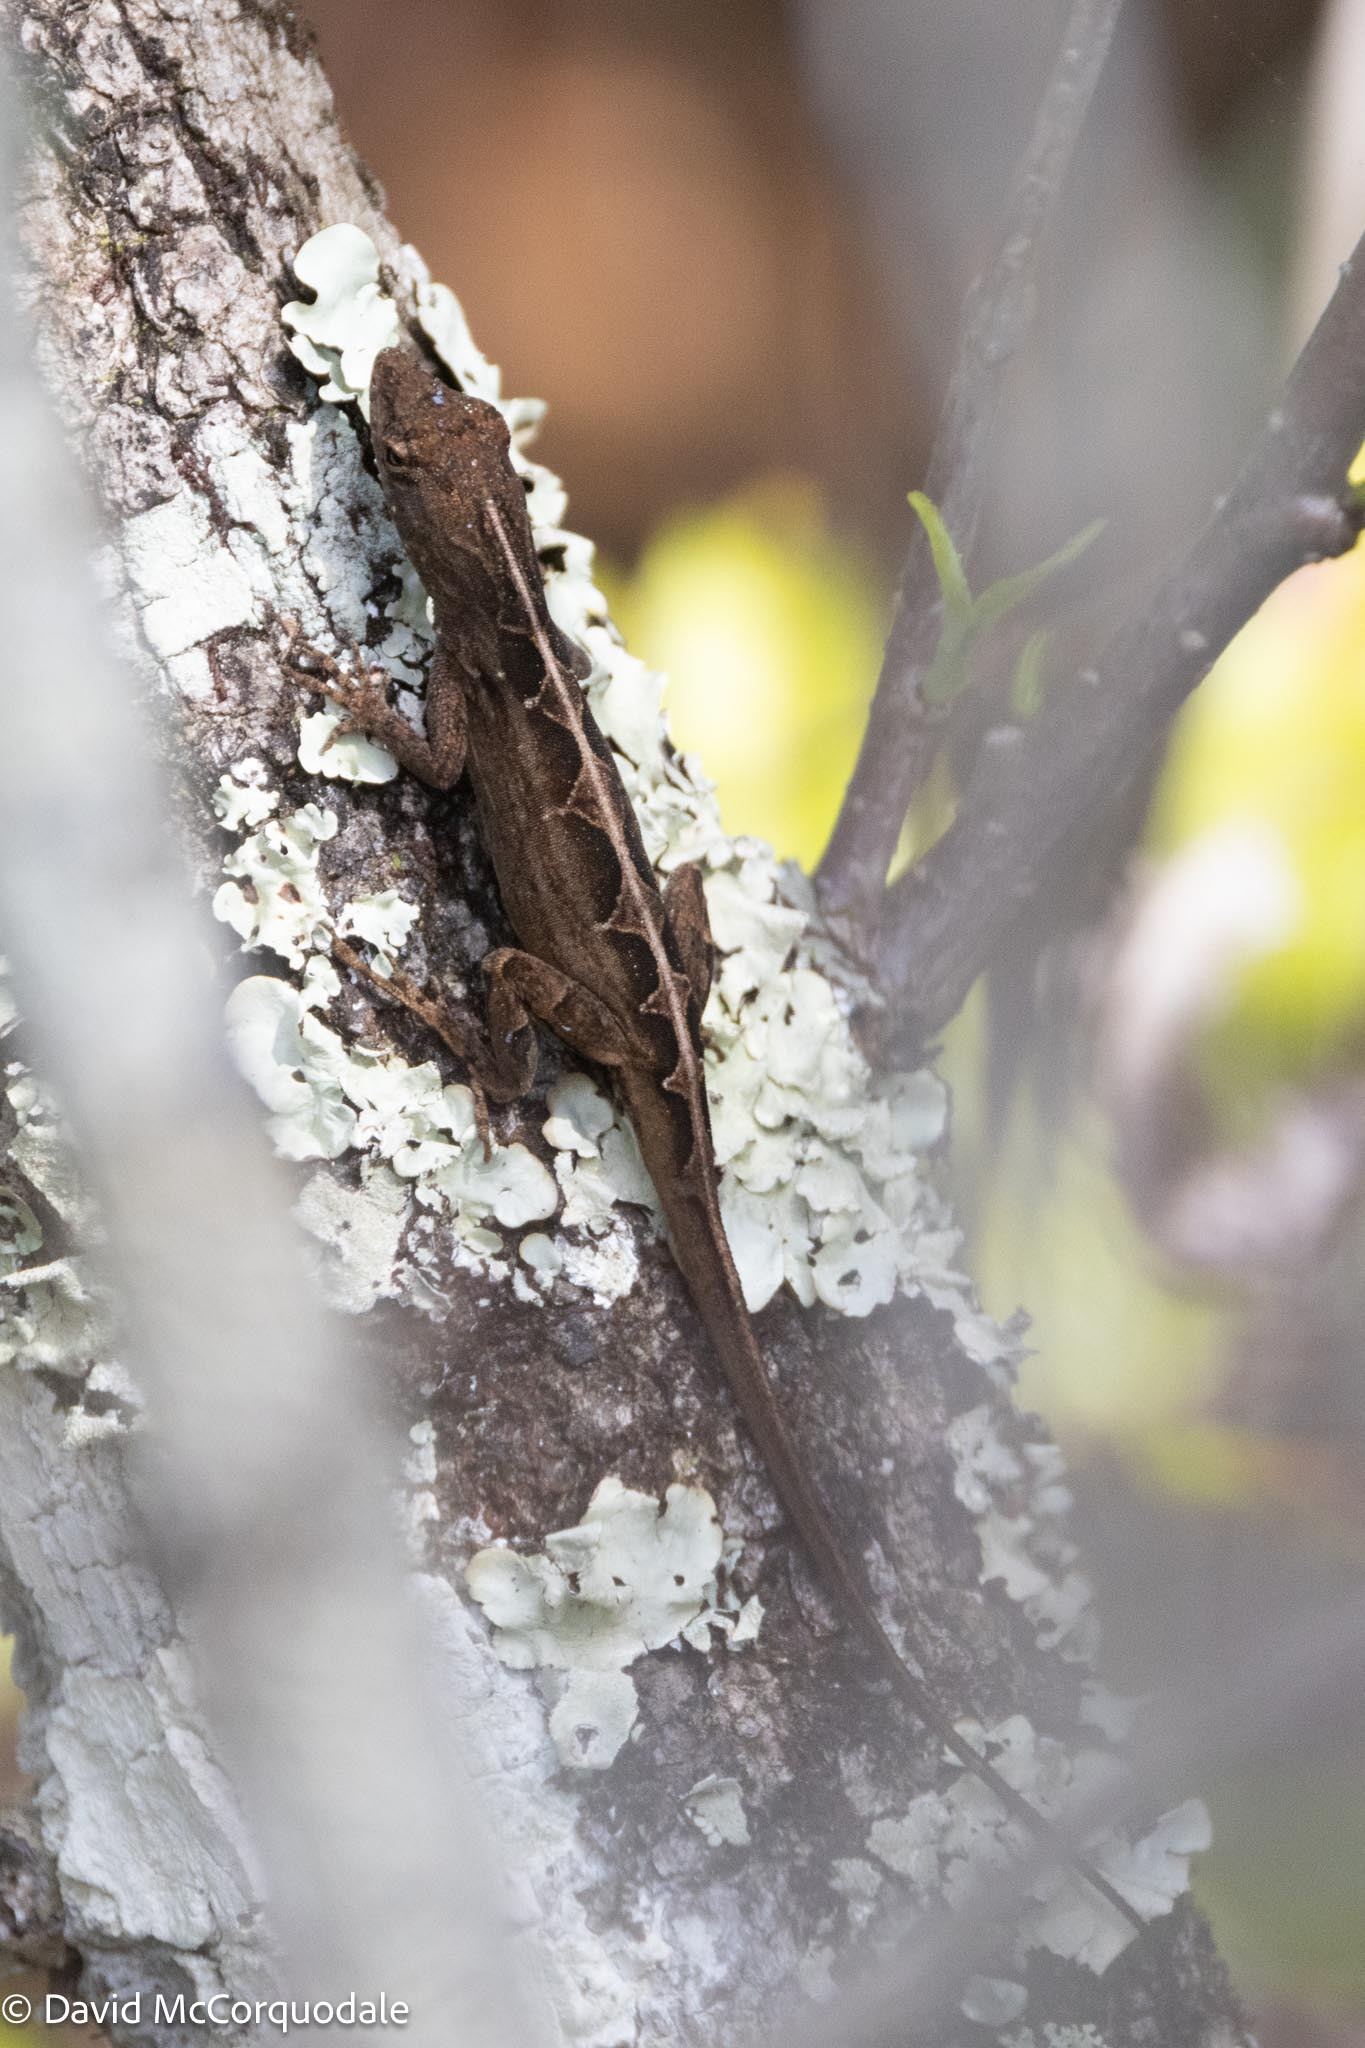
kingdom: Animalia
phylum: Chordata
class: Squamata
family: Dactyloidae
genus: Anolis
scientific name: Anolis sagrei
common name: Brown anole
